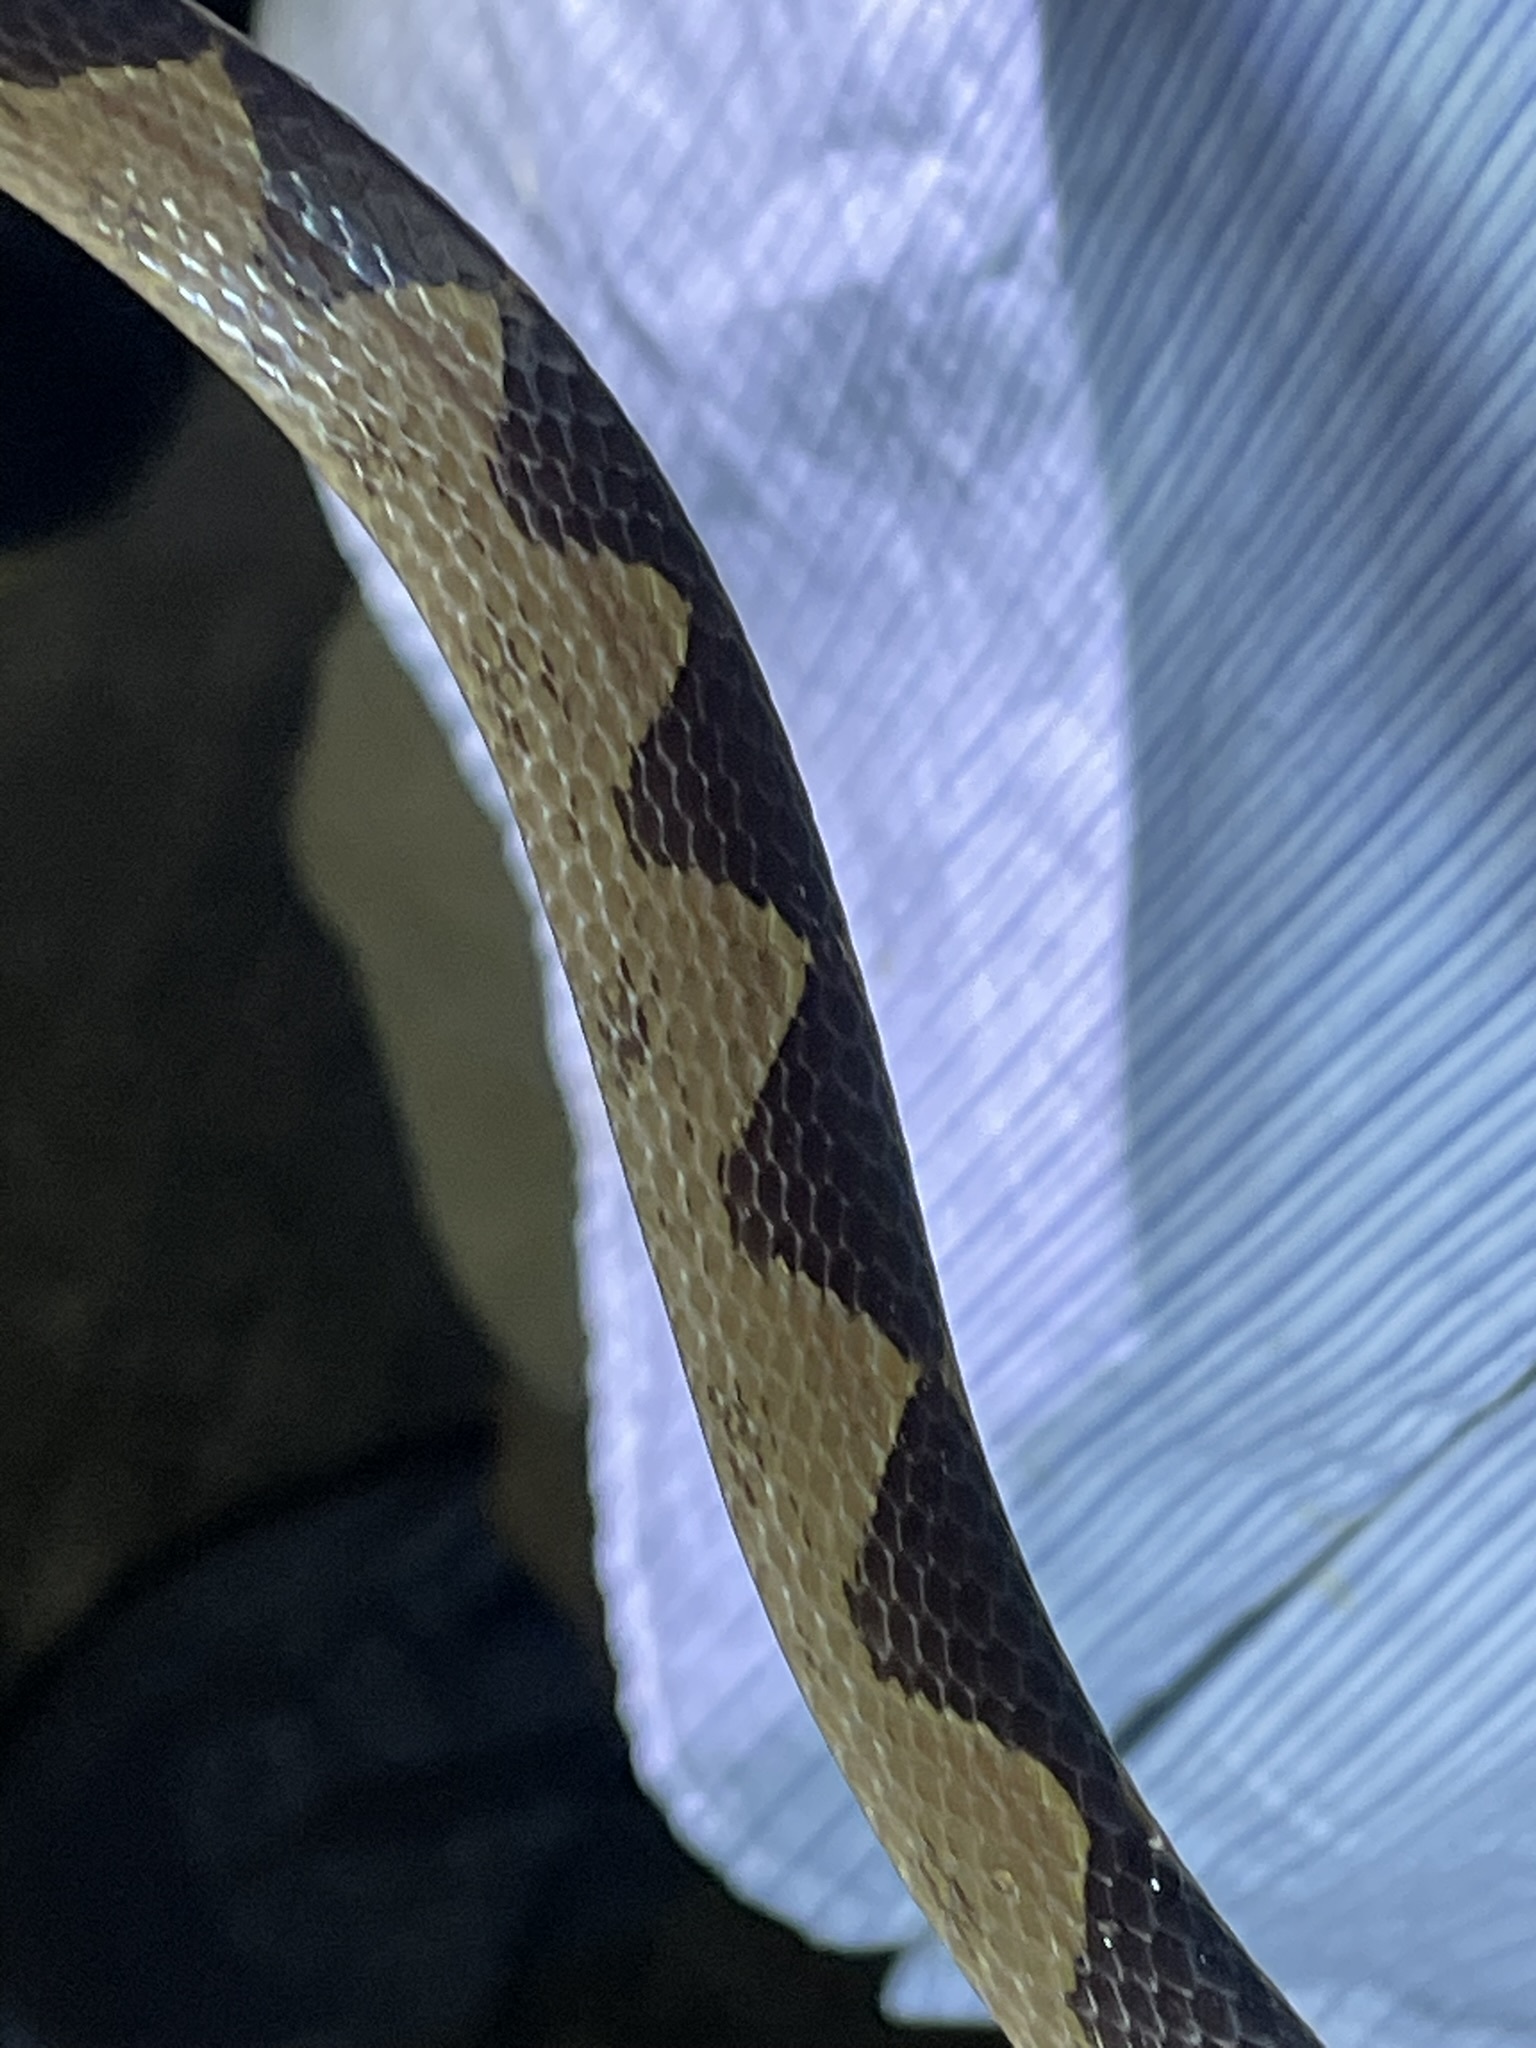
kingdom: Animalia
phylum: Chordata
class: Squamata
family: Colubridae
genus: Leptodeira
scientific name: Leptodeira annulata
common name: Banded cat-eyed snake
